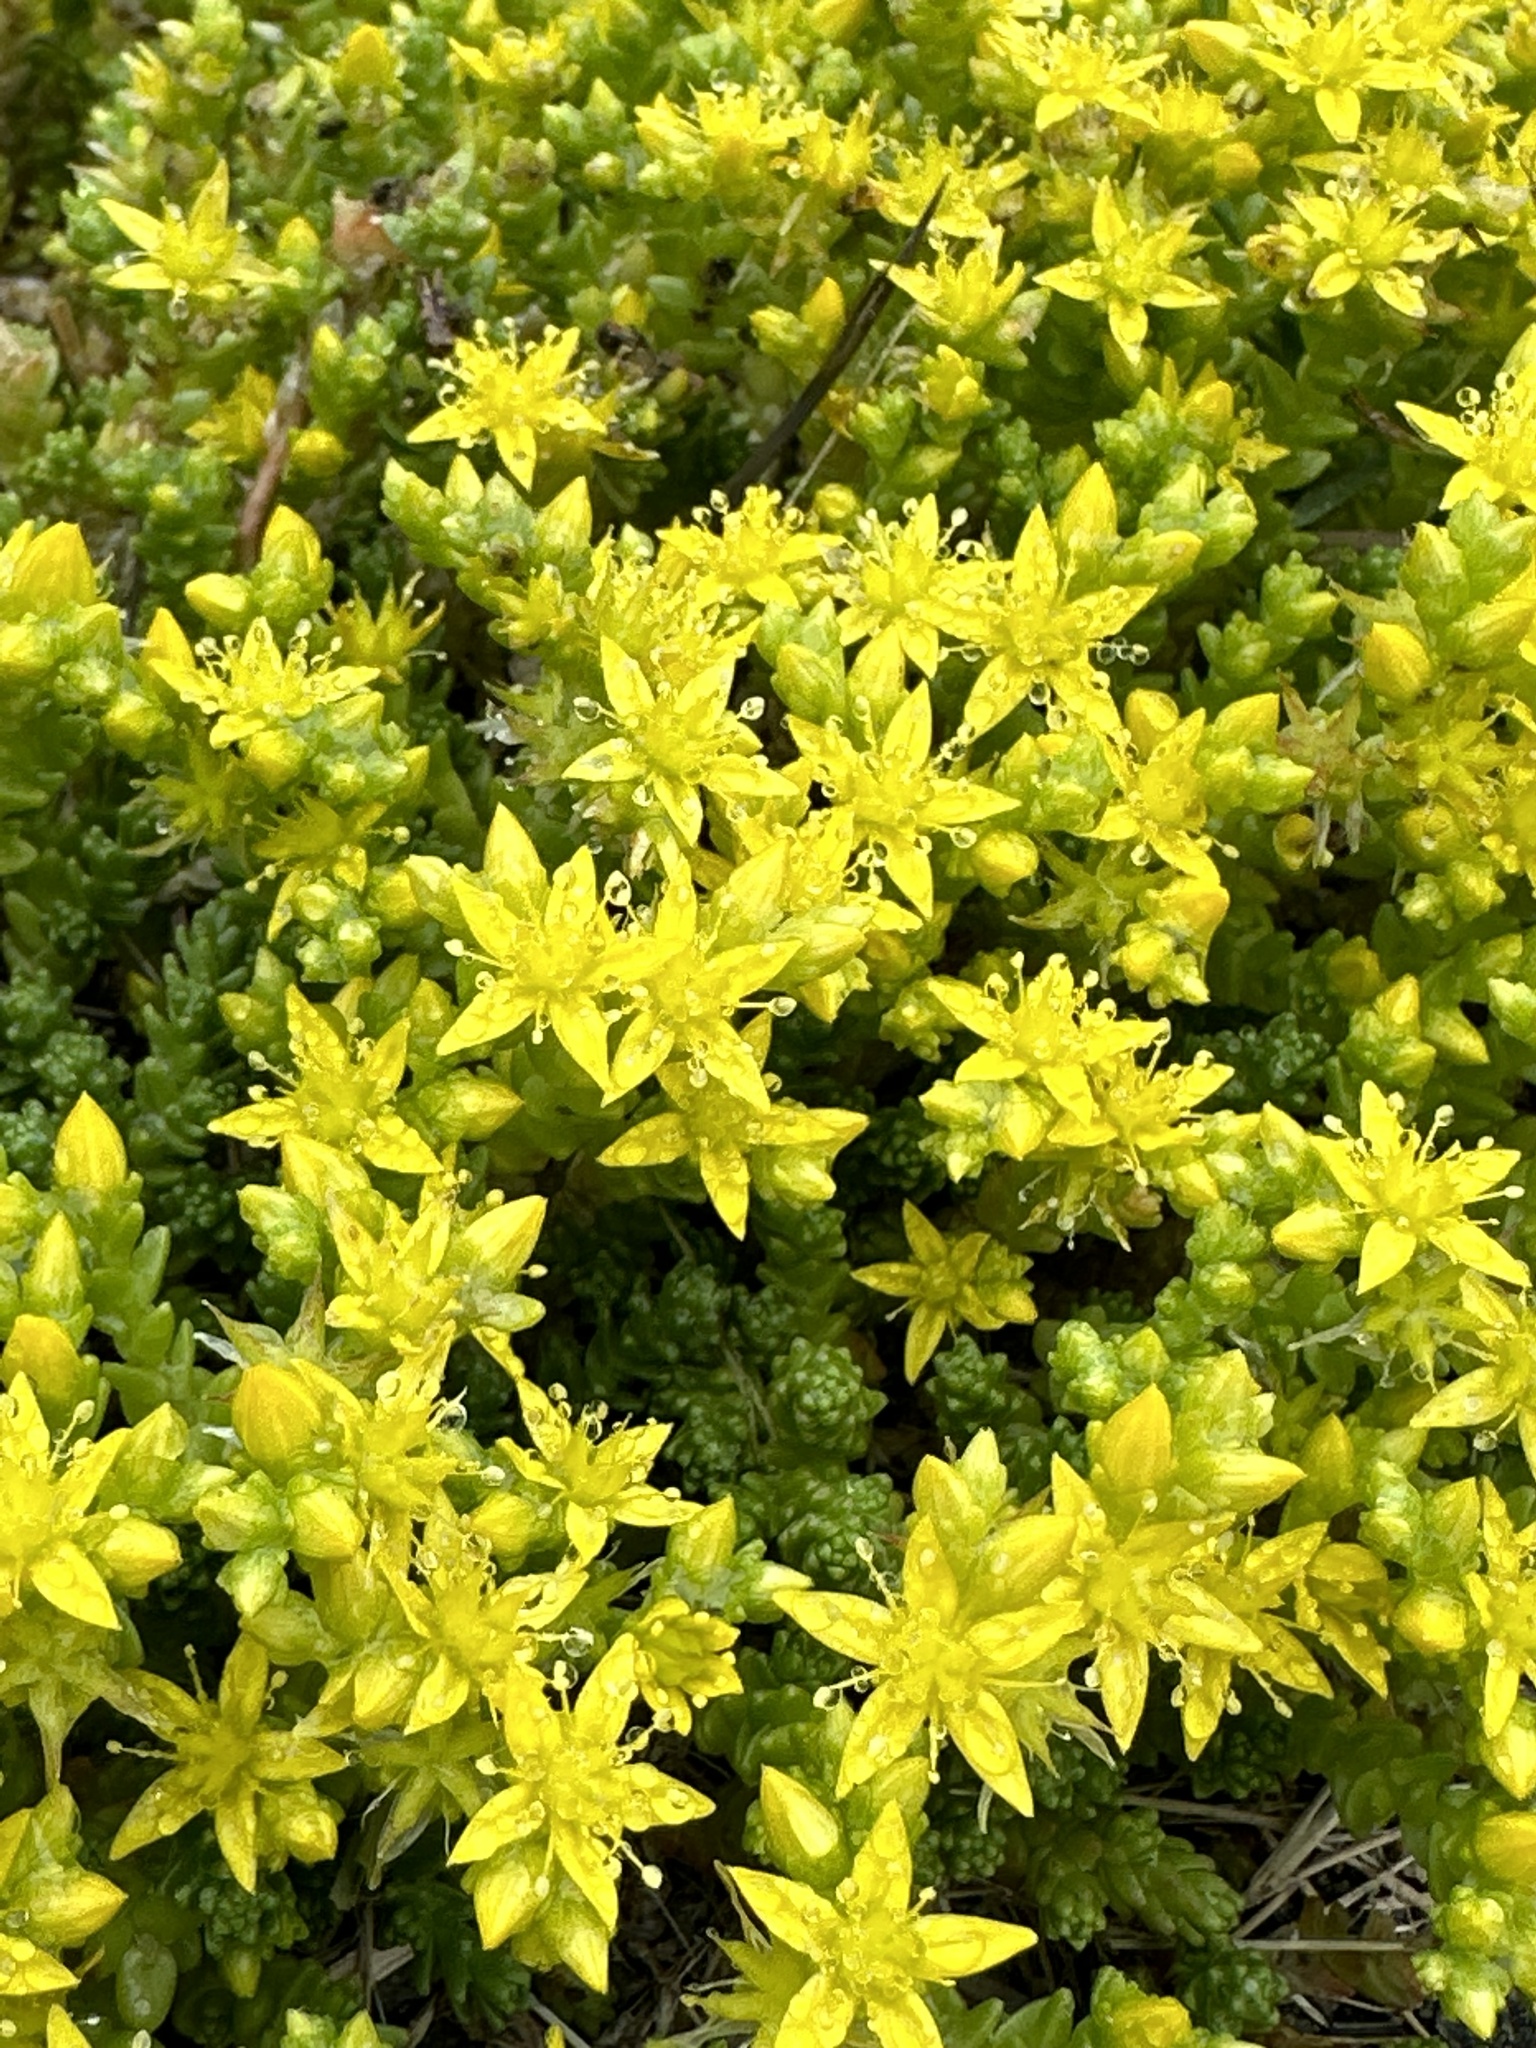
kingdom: Plantae
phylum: Tracheophyta
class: Magnoliopsida
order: Saxifragales
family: Crassulaceae
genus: Sedum
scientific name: Sedum acre
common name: Biting stonecrop
